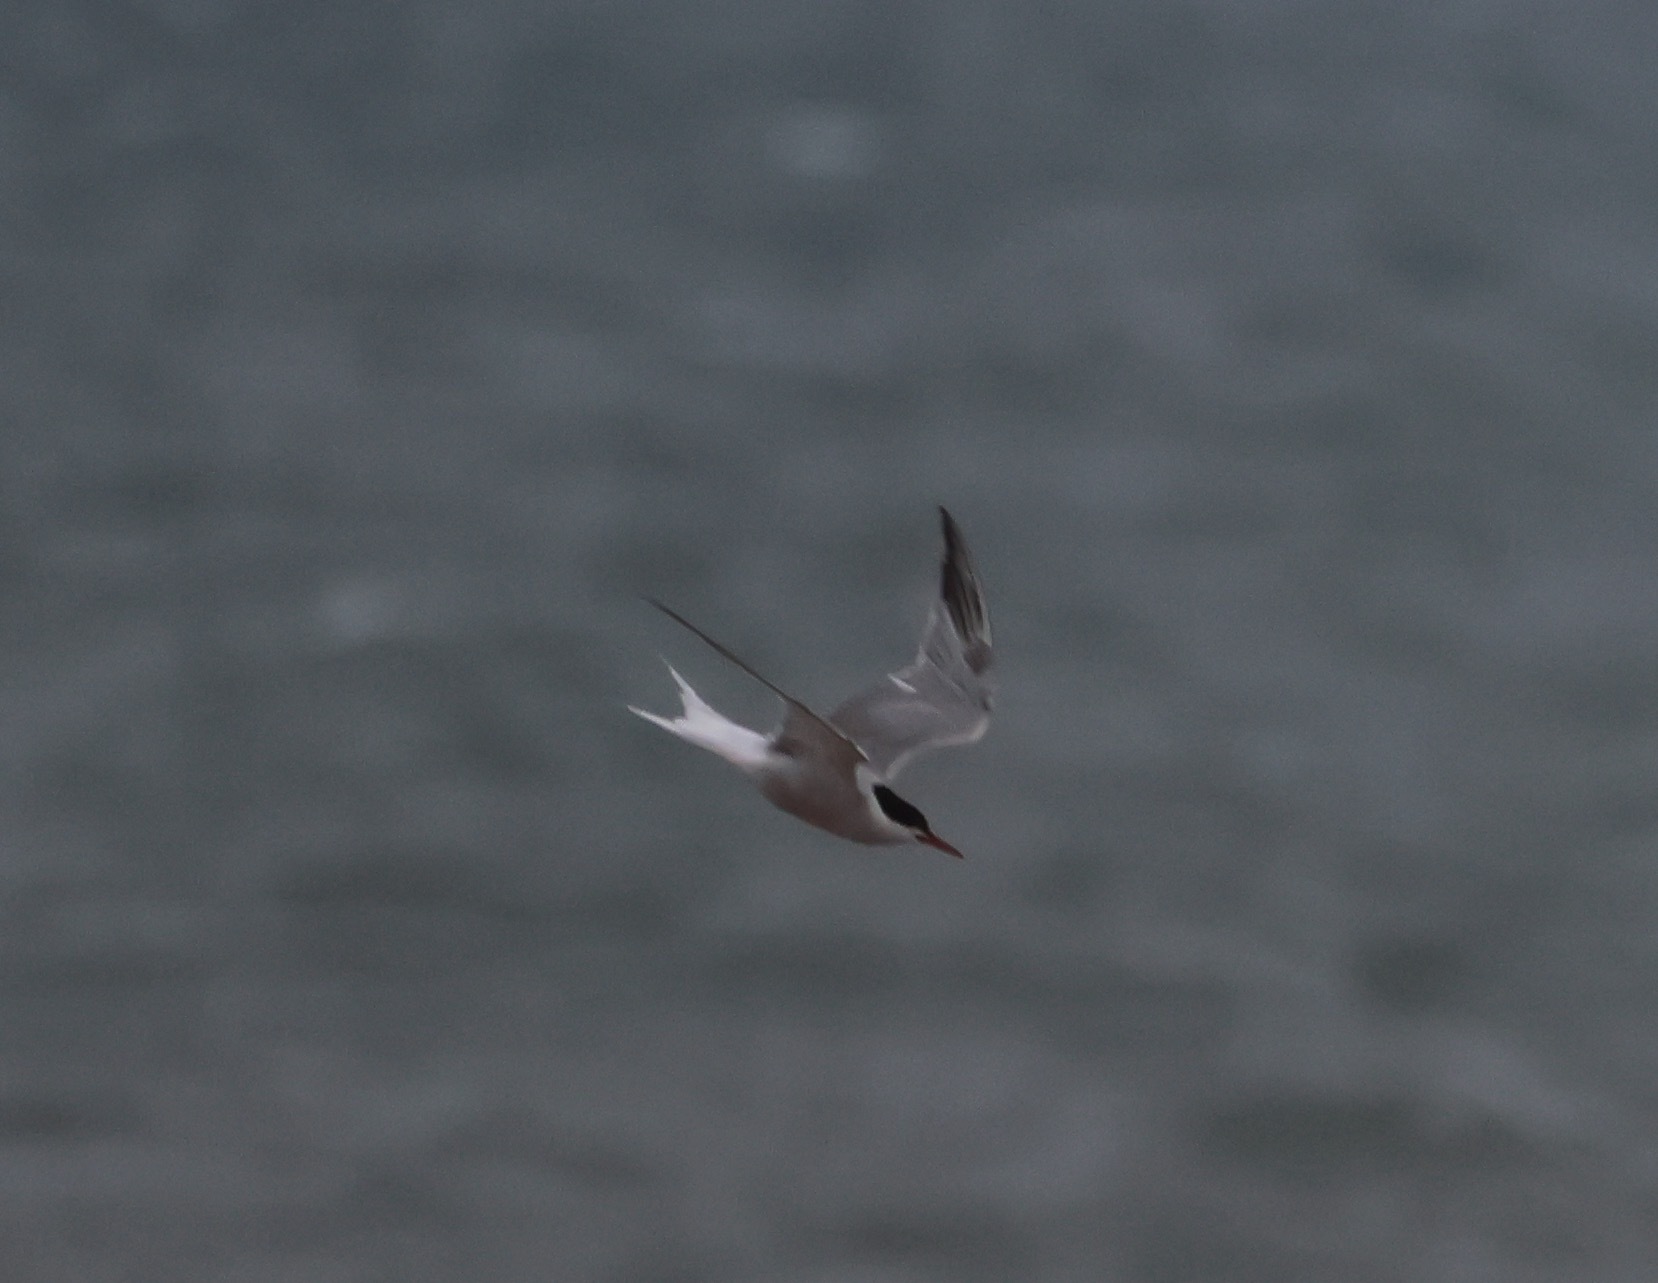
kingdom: Animalia
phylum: Chordata
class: Aves
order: Charadriiformes
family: Laridae
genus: Sterna
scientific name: Sterna hirundo
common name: Common tern
